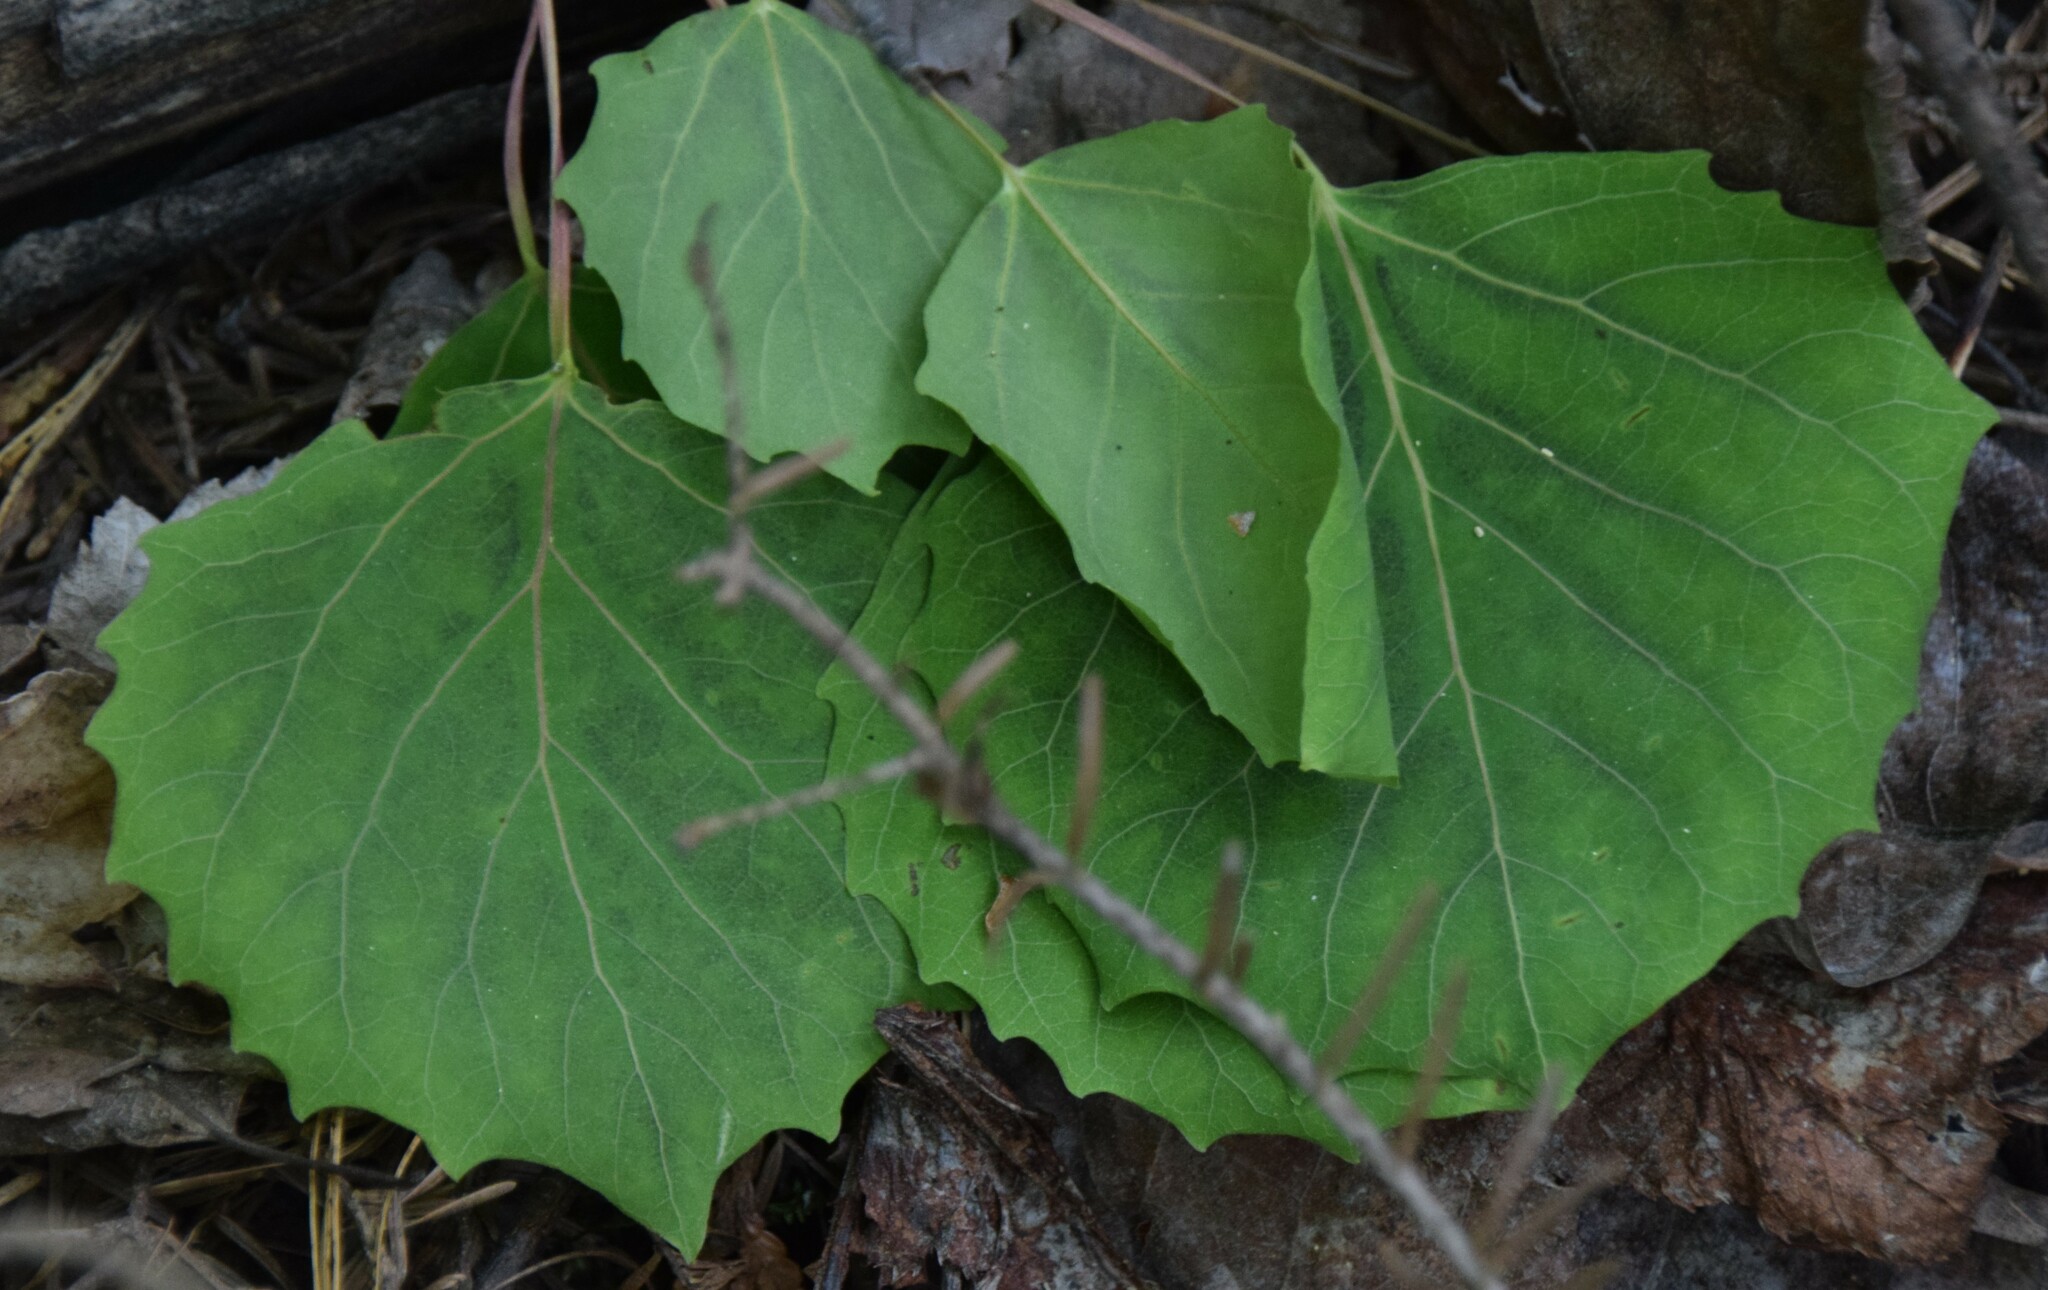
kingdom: Plantae
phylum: Tracheophyta
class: Magnoliopsida
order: Malpighiales
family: Salicaceae
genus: Populus
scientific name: Populus grandidentata
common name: Bigtooth aspen
